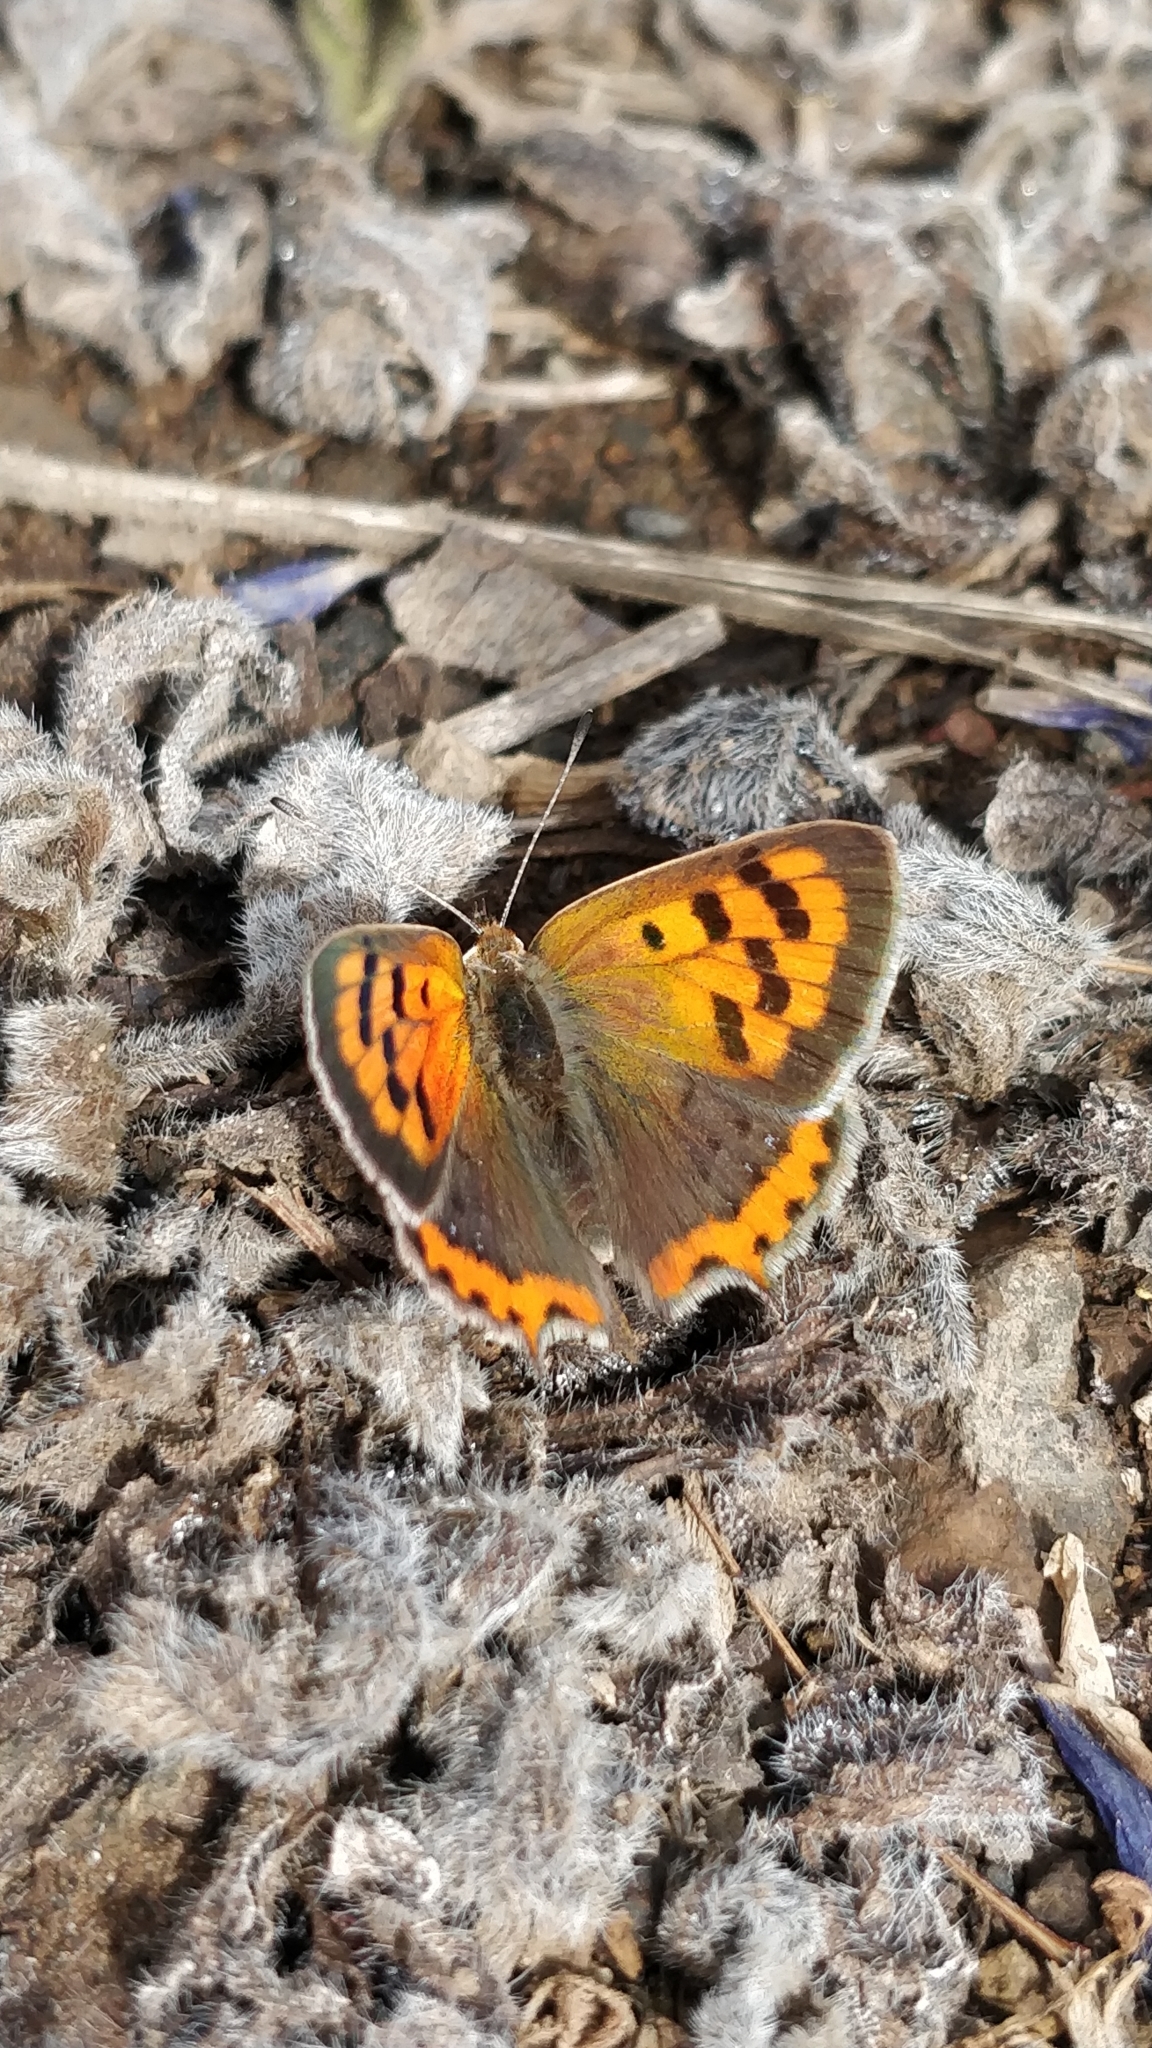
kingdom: Animalia
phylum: Arthropoda
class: Insecta
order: Lepidoptera
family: Lycaenidae
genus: Lycaena
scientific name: Lycaena phlaeas
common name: Small copper
